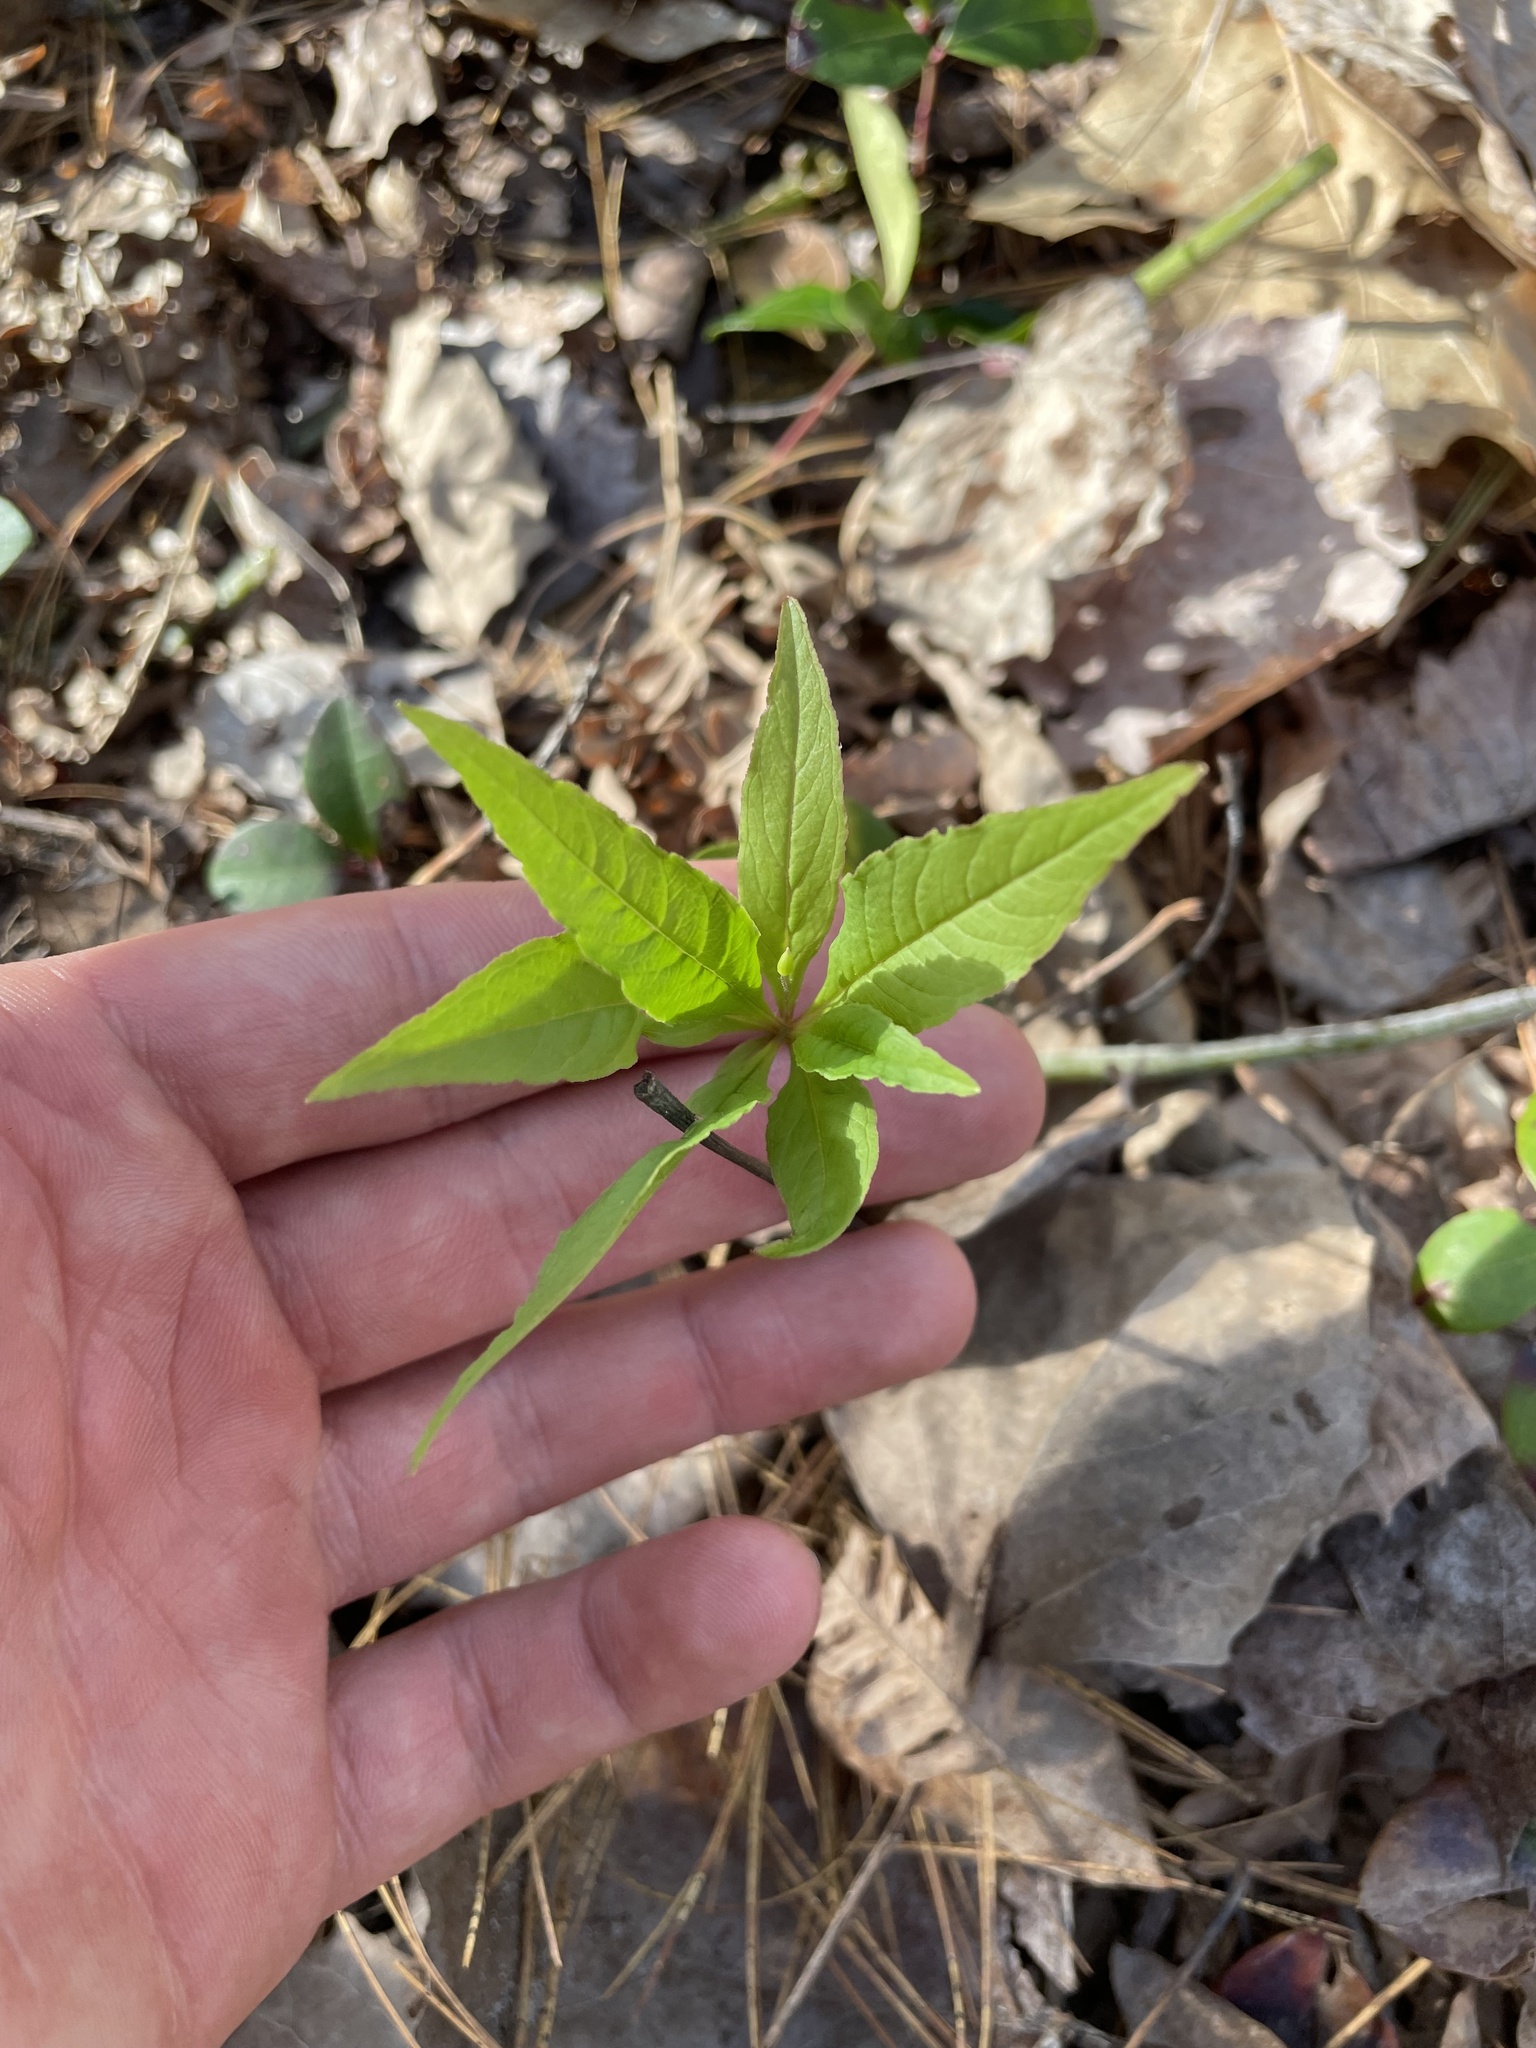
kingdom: Plantae
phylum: Tracheophyta
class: Magnoliopsida
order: Ericales
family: Primulaceae
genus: Lysimachia
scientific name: Lysimachia borealis
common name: American starflower
